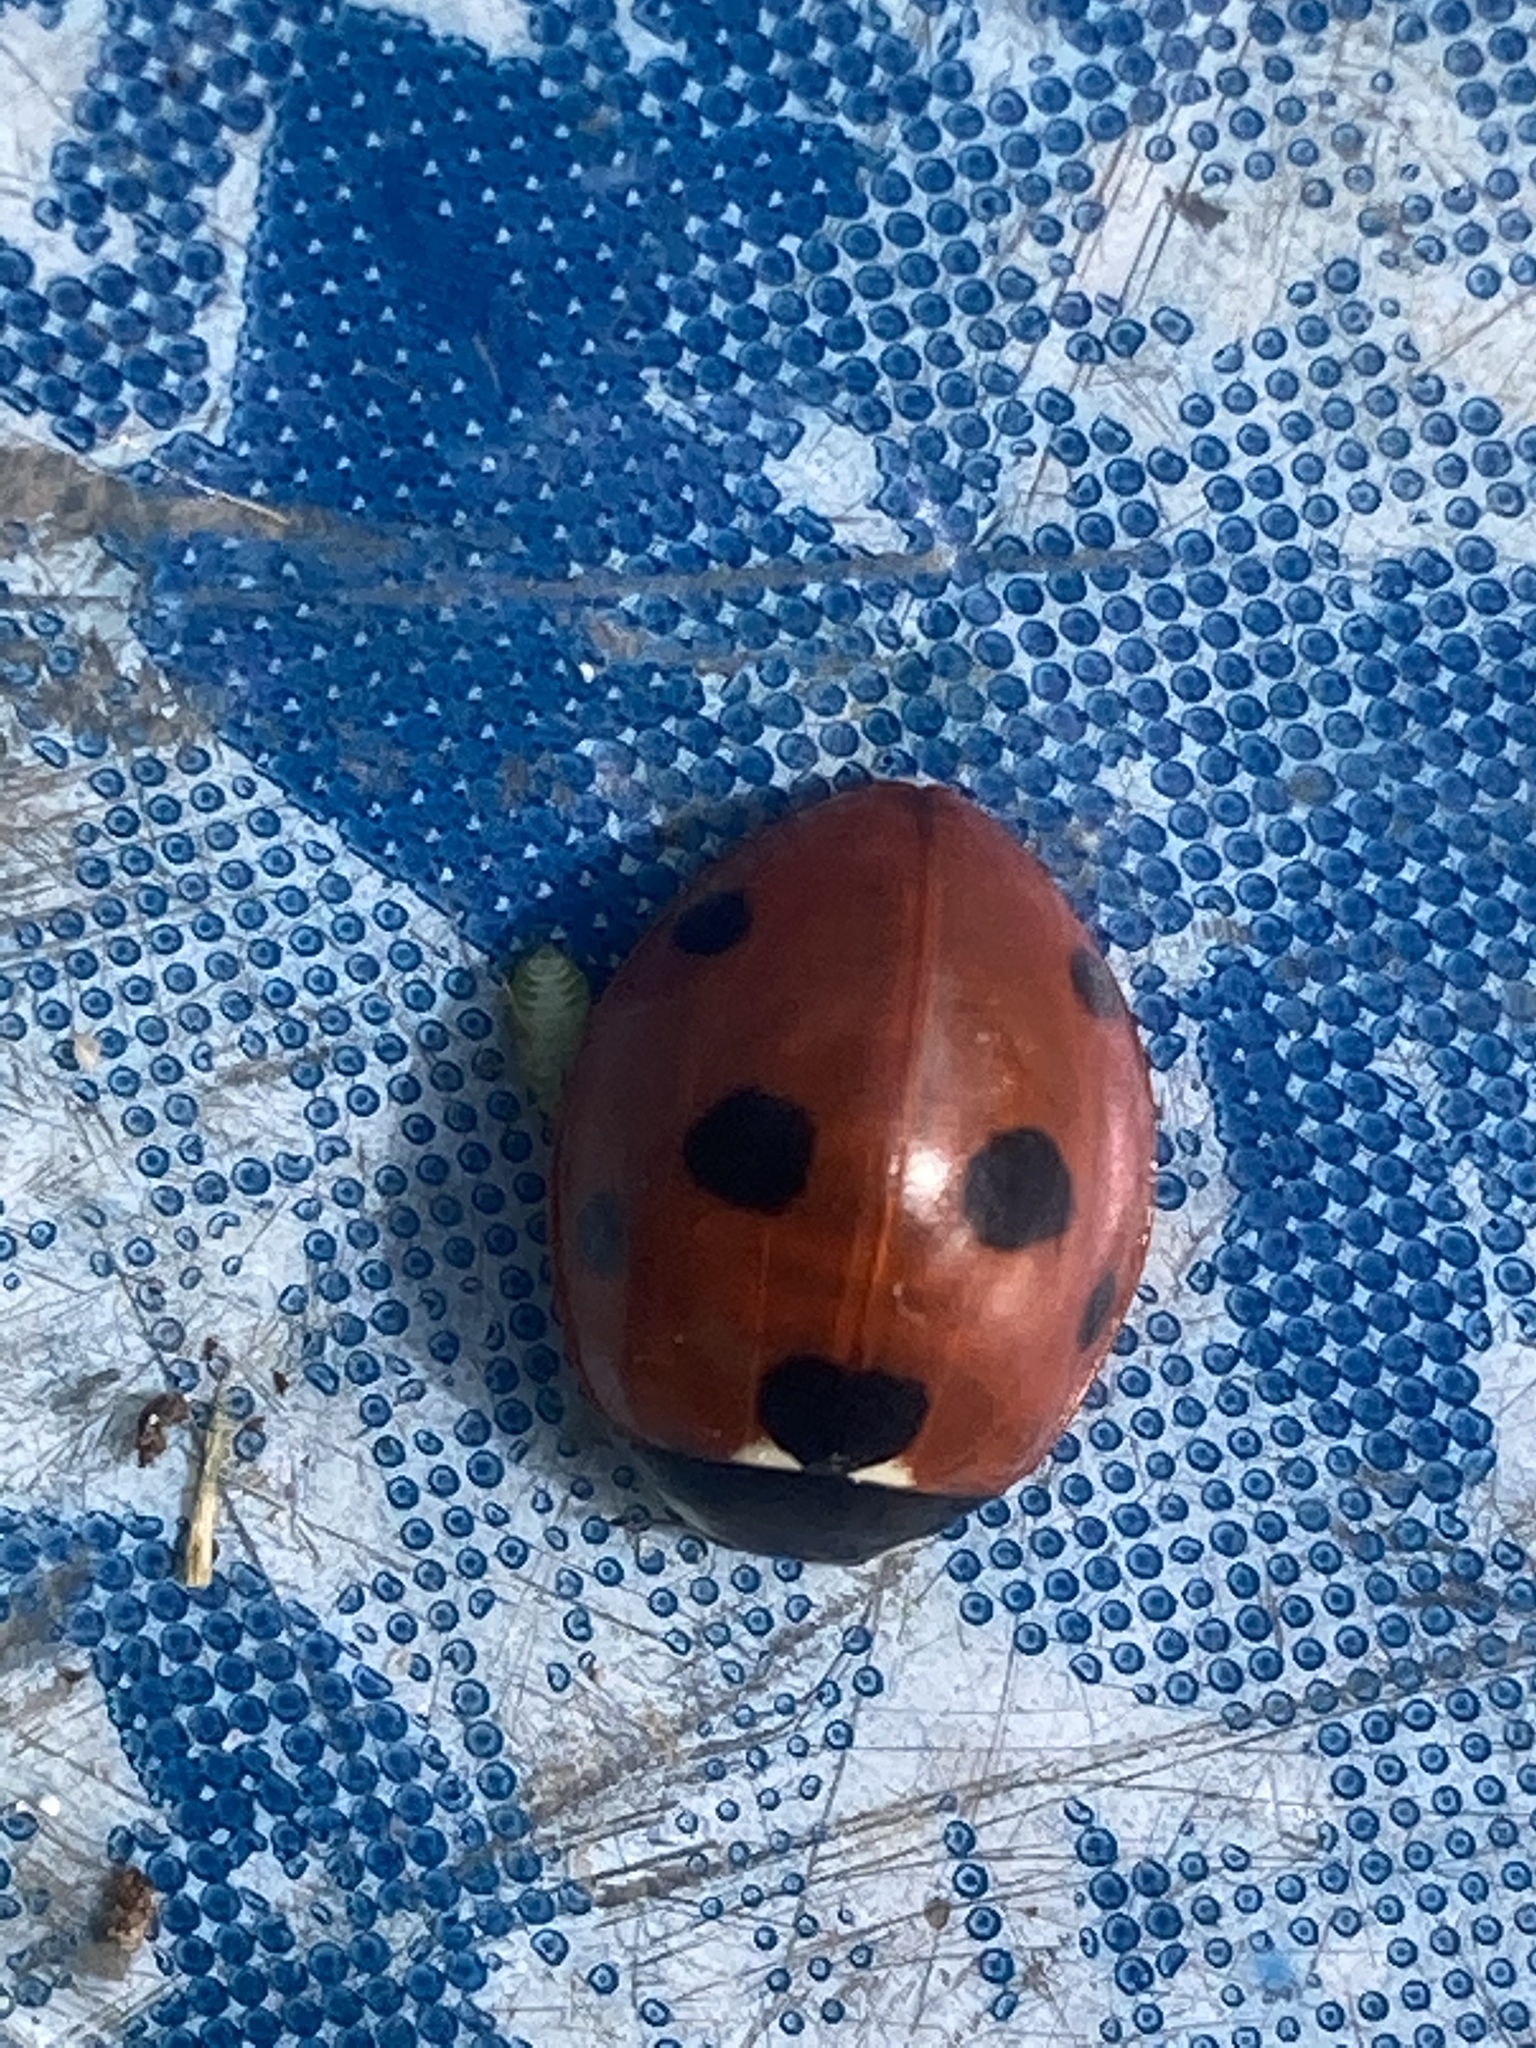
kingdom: Animalia
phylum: Arthropoda
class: Insecta
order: Coleoptera
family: Coccinellidae
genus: Coccinella
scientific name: Coccinella septempunctata
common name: Sevenspotted lady beetle
